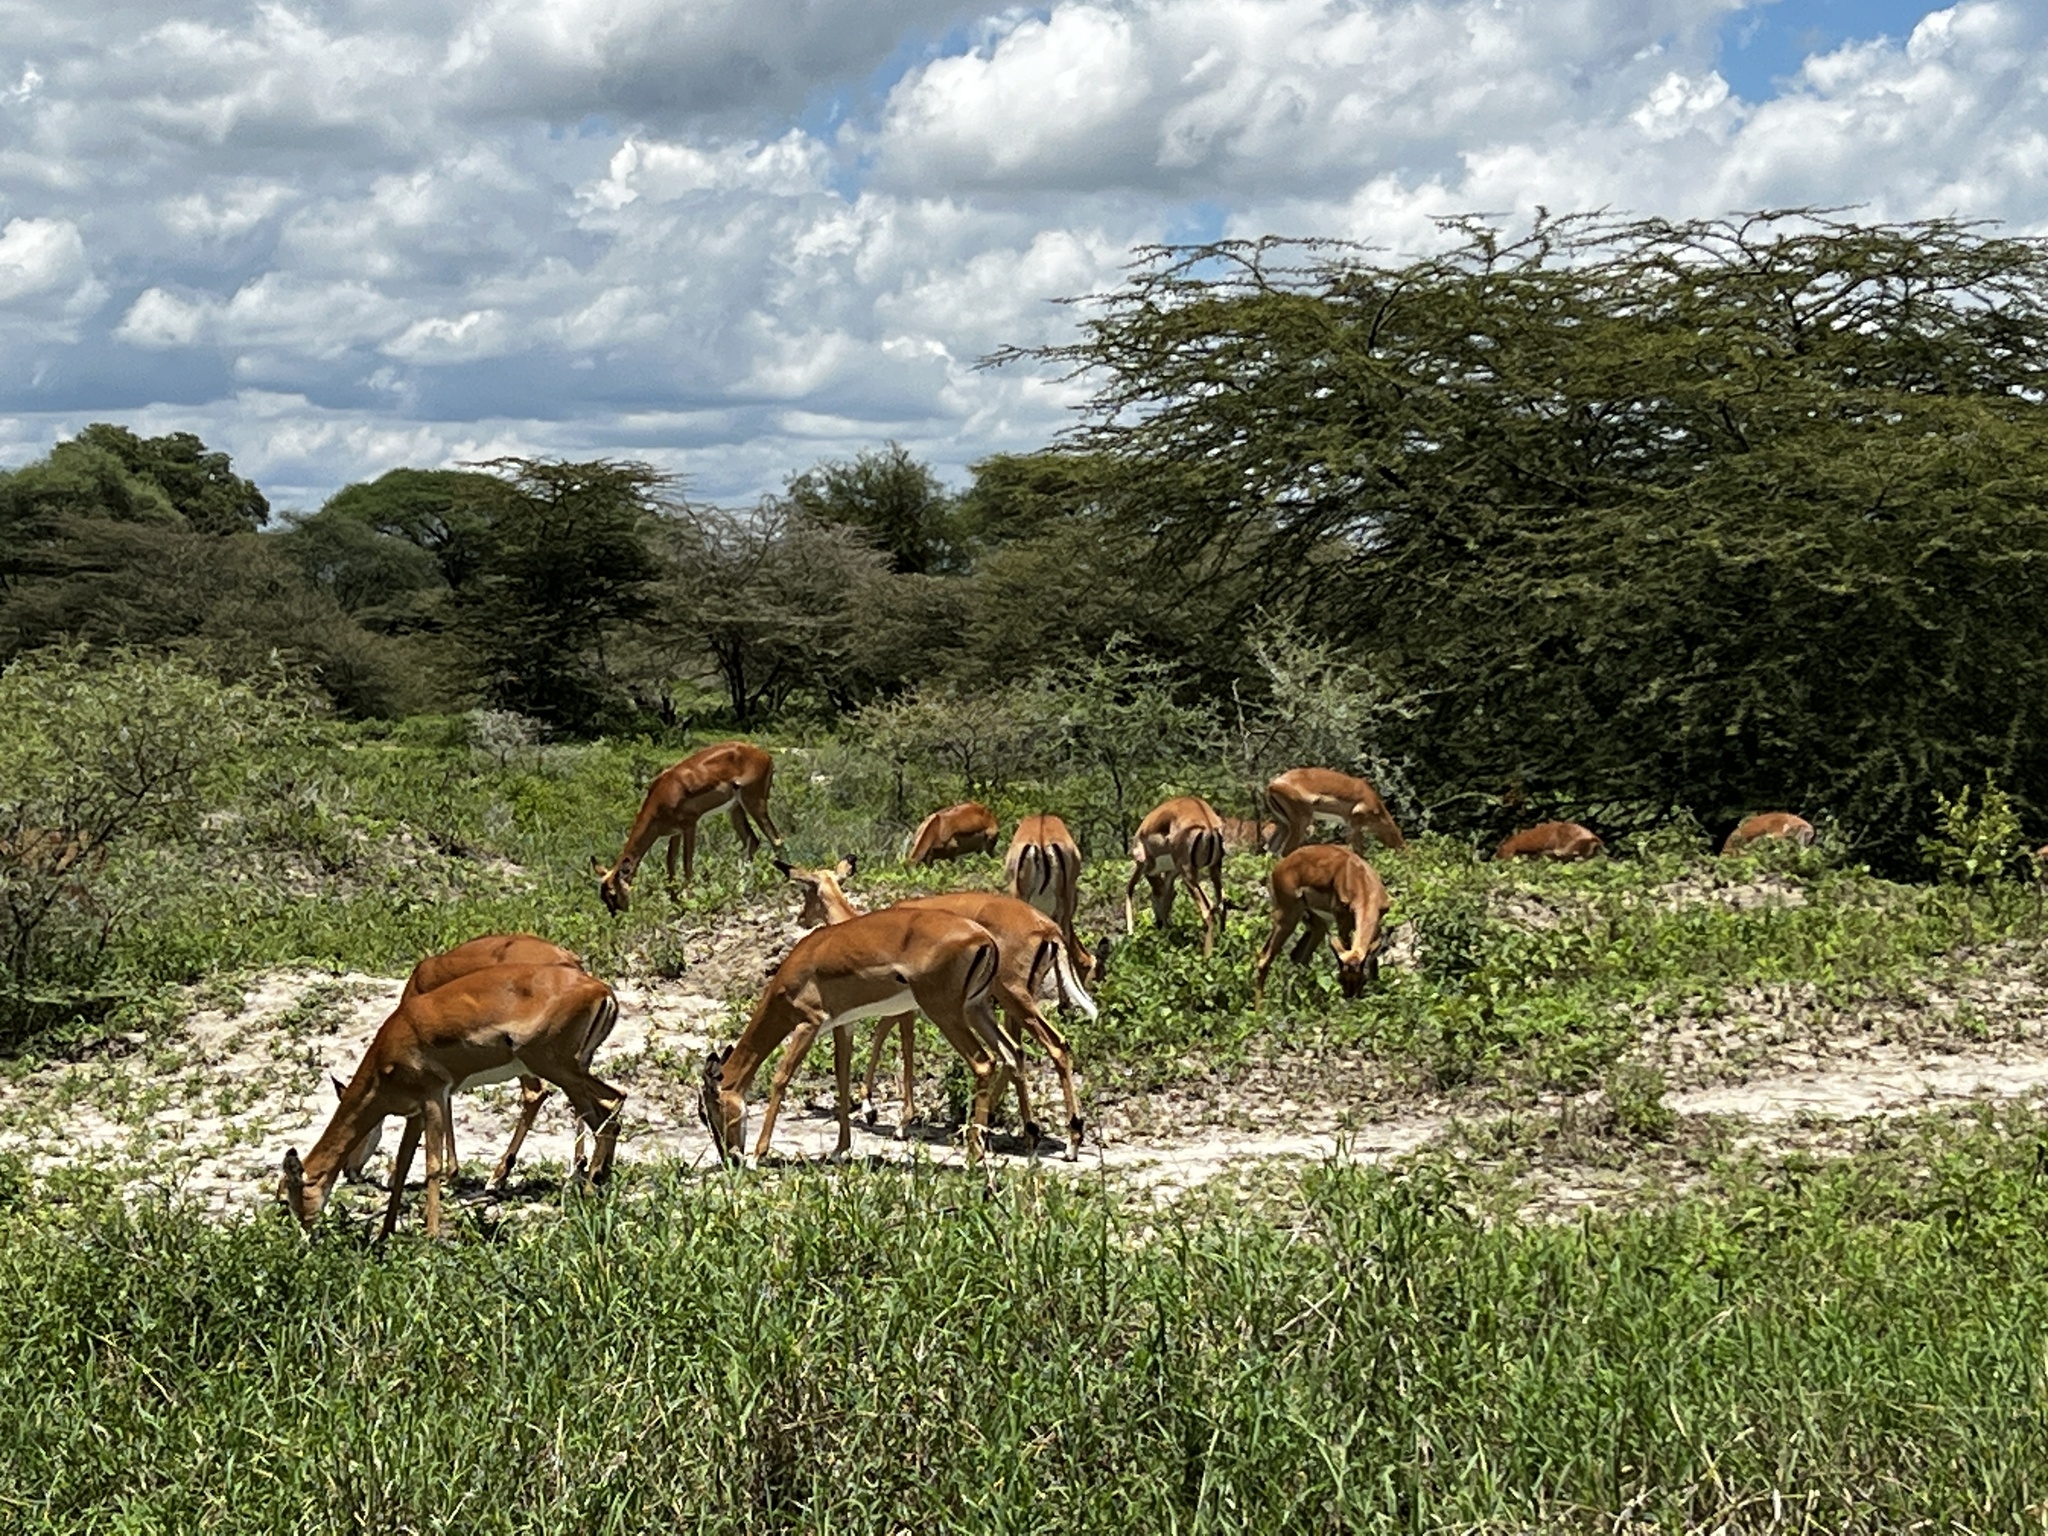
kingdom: Animalia
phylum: Chordata
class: Mammalia
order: Artiodactyla
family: Bovidae
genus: Aepyceros
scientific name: Aepyceros melampus
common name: Impala
